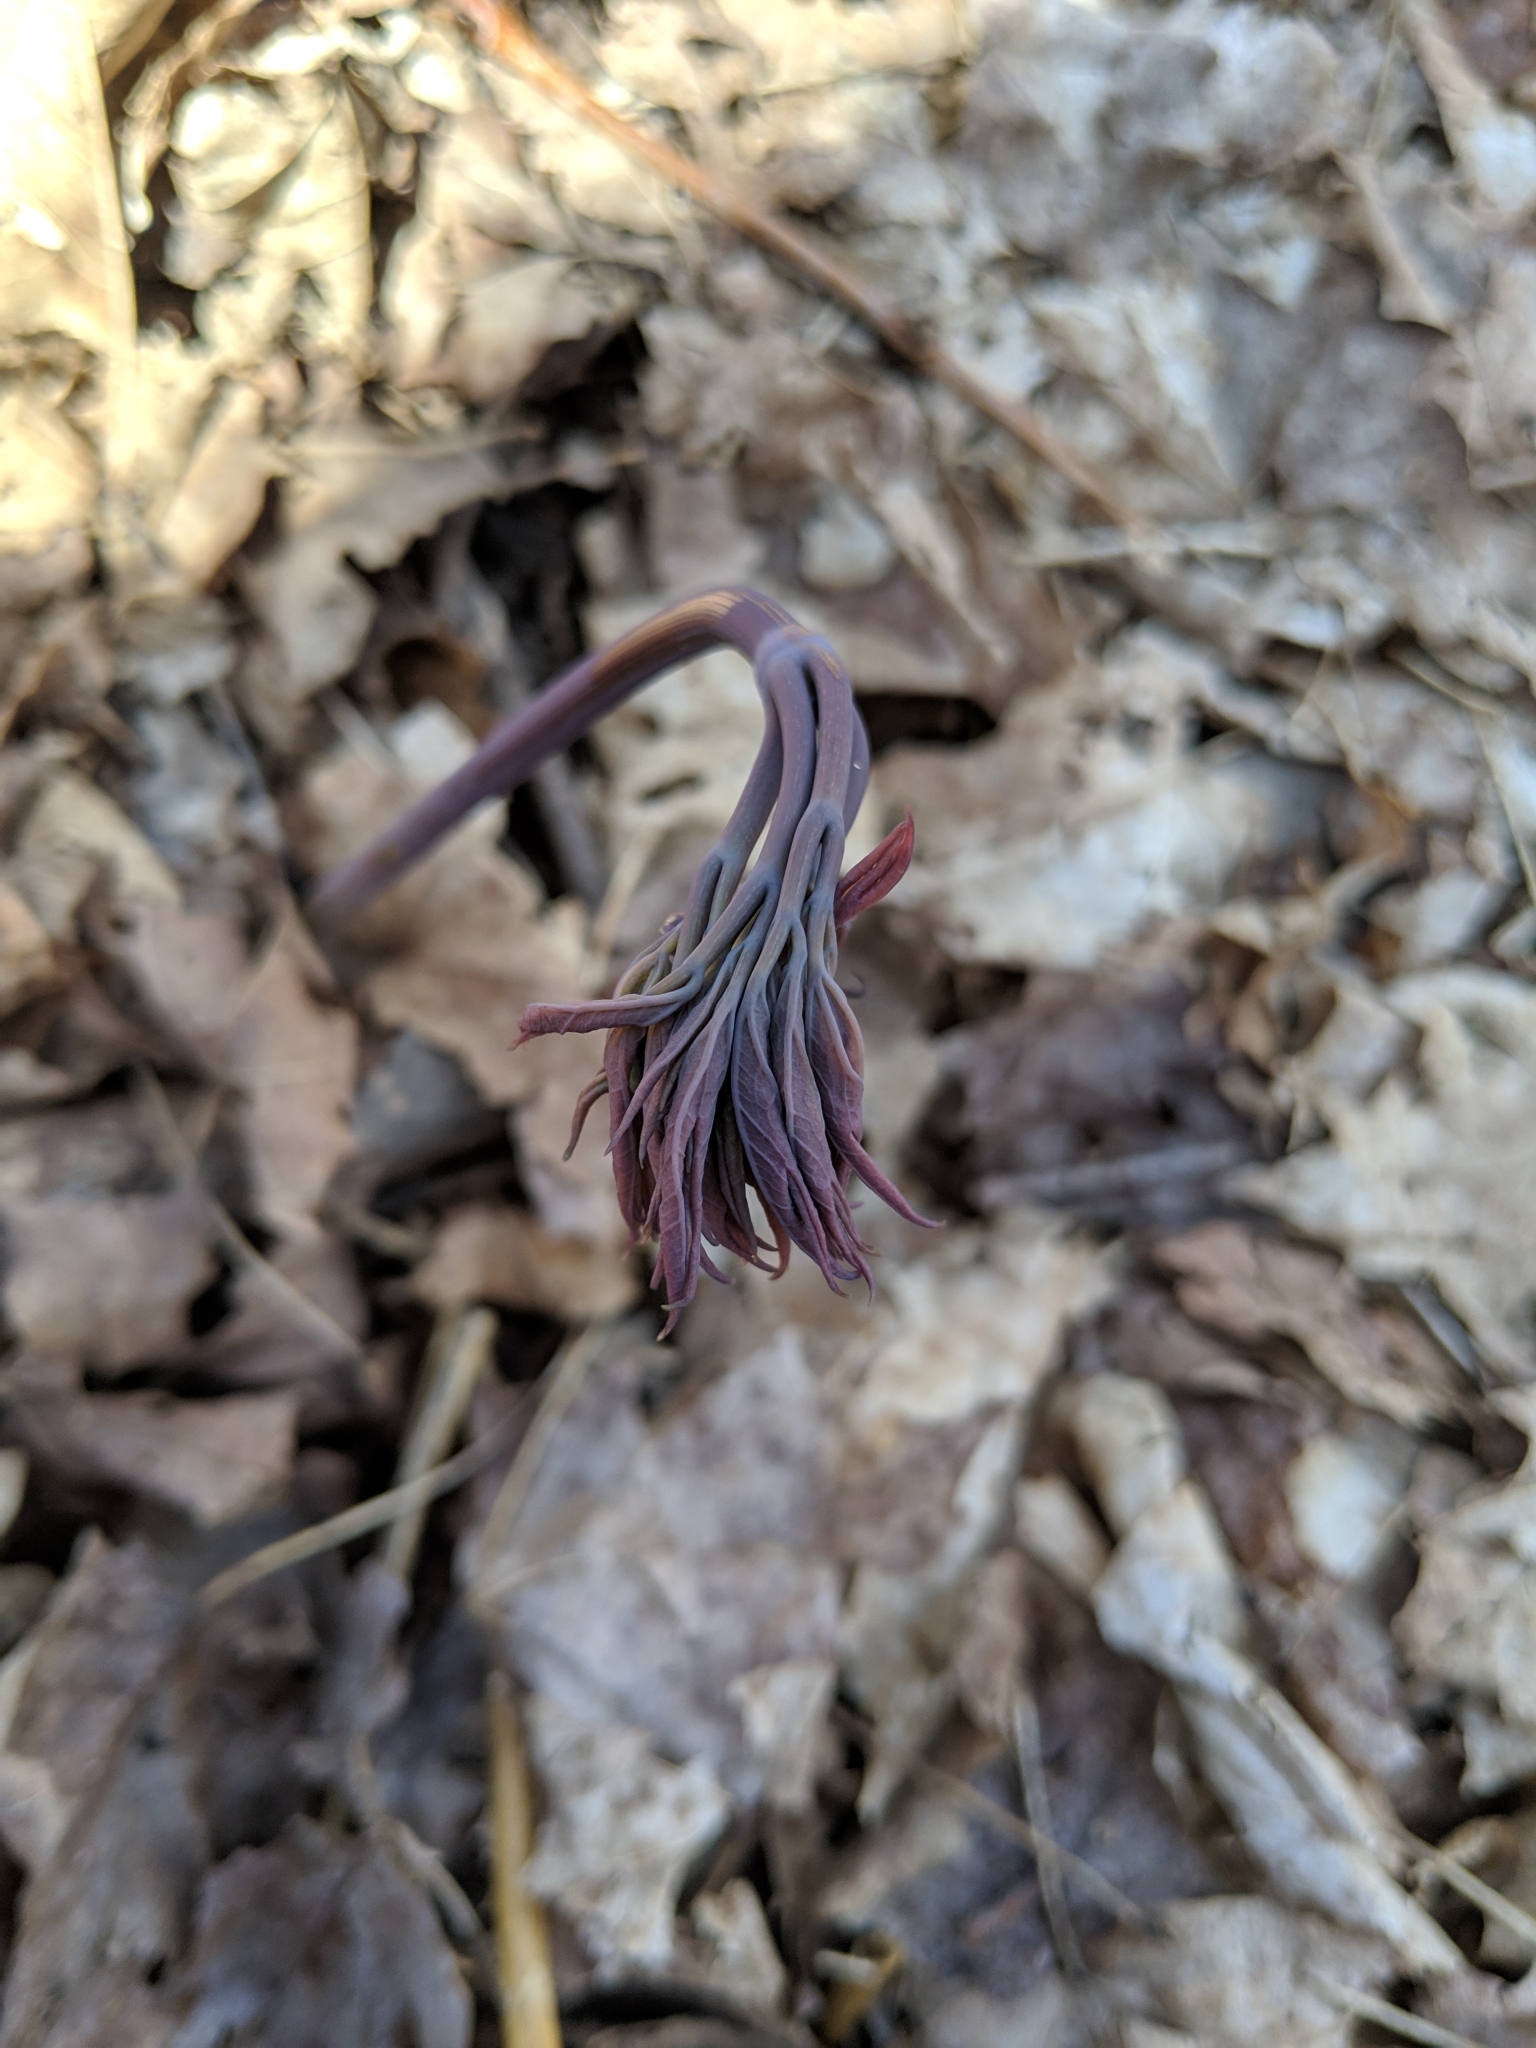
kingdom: Plantae
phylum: Tracheophyta
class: Magnoliopsida
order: Ranunculales
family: Berberidaceae
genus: Caulophyllum
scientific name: Caulophyllum giganteum
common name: Blue cohosh
